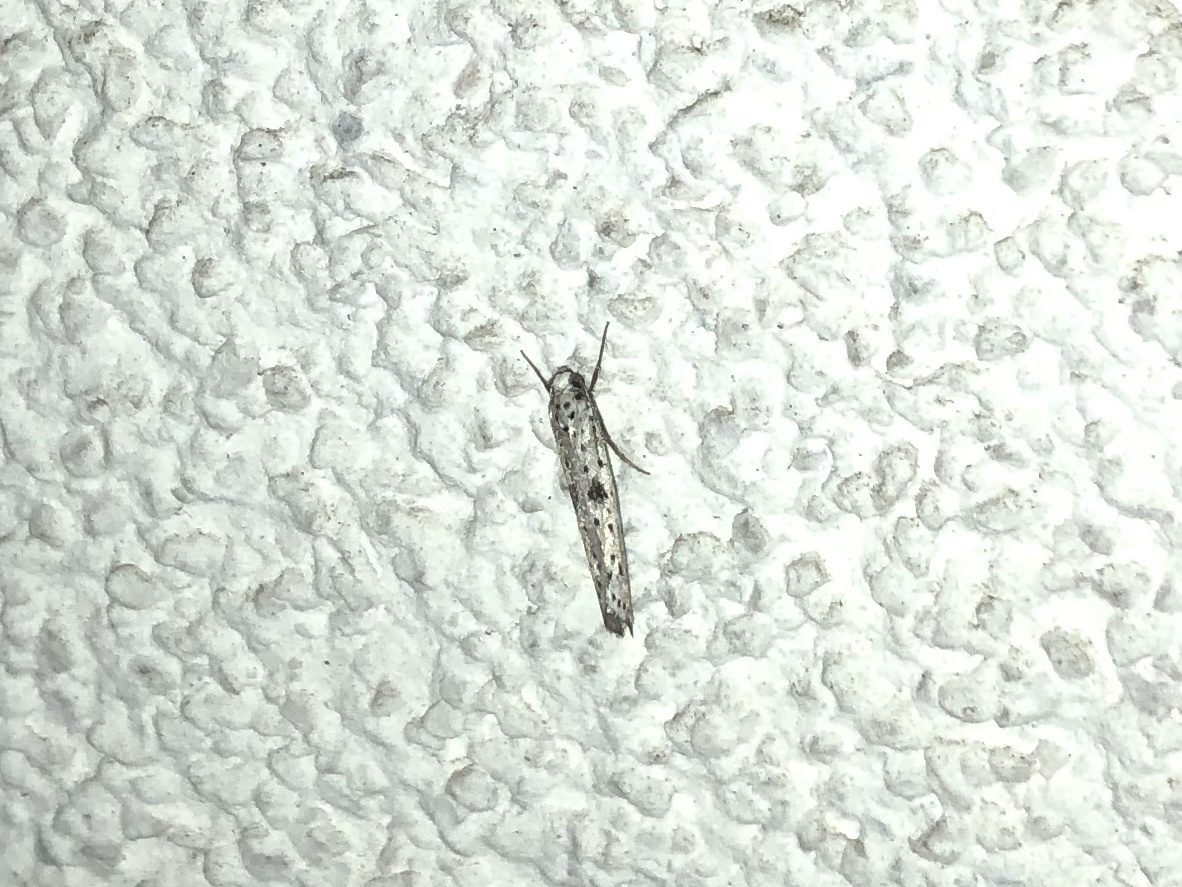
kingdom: Animalia
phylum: Arthropoda
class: Insecta
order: Lepidoptera
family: Yponomeutidae
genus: Yponomeuta
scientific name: Yponomeuta plumbella
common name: Black-tipped ermine
